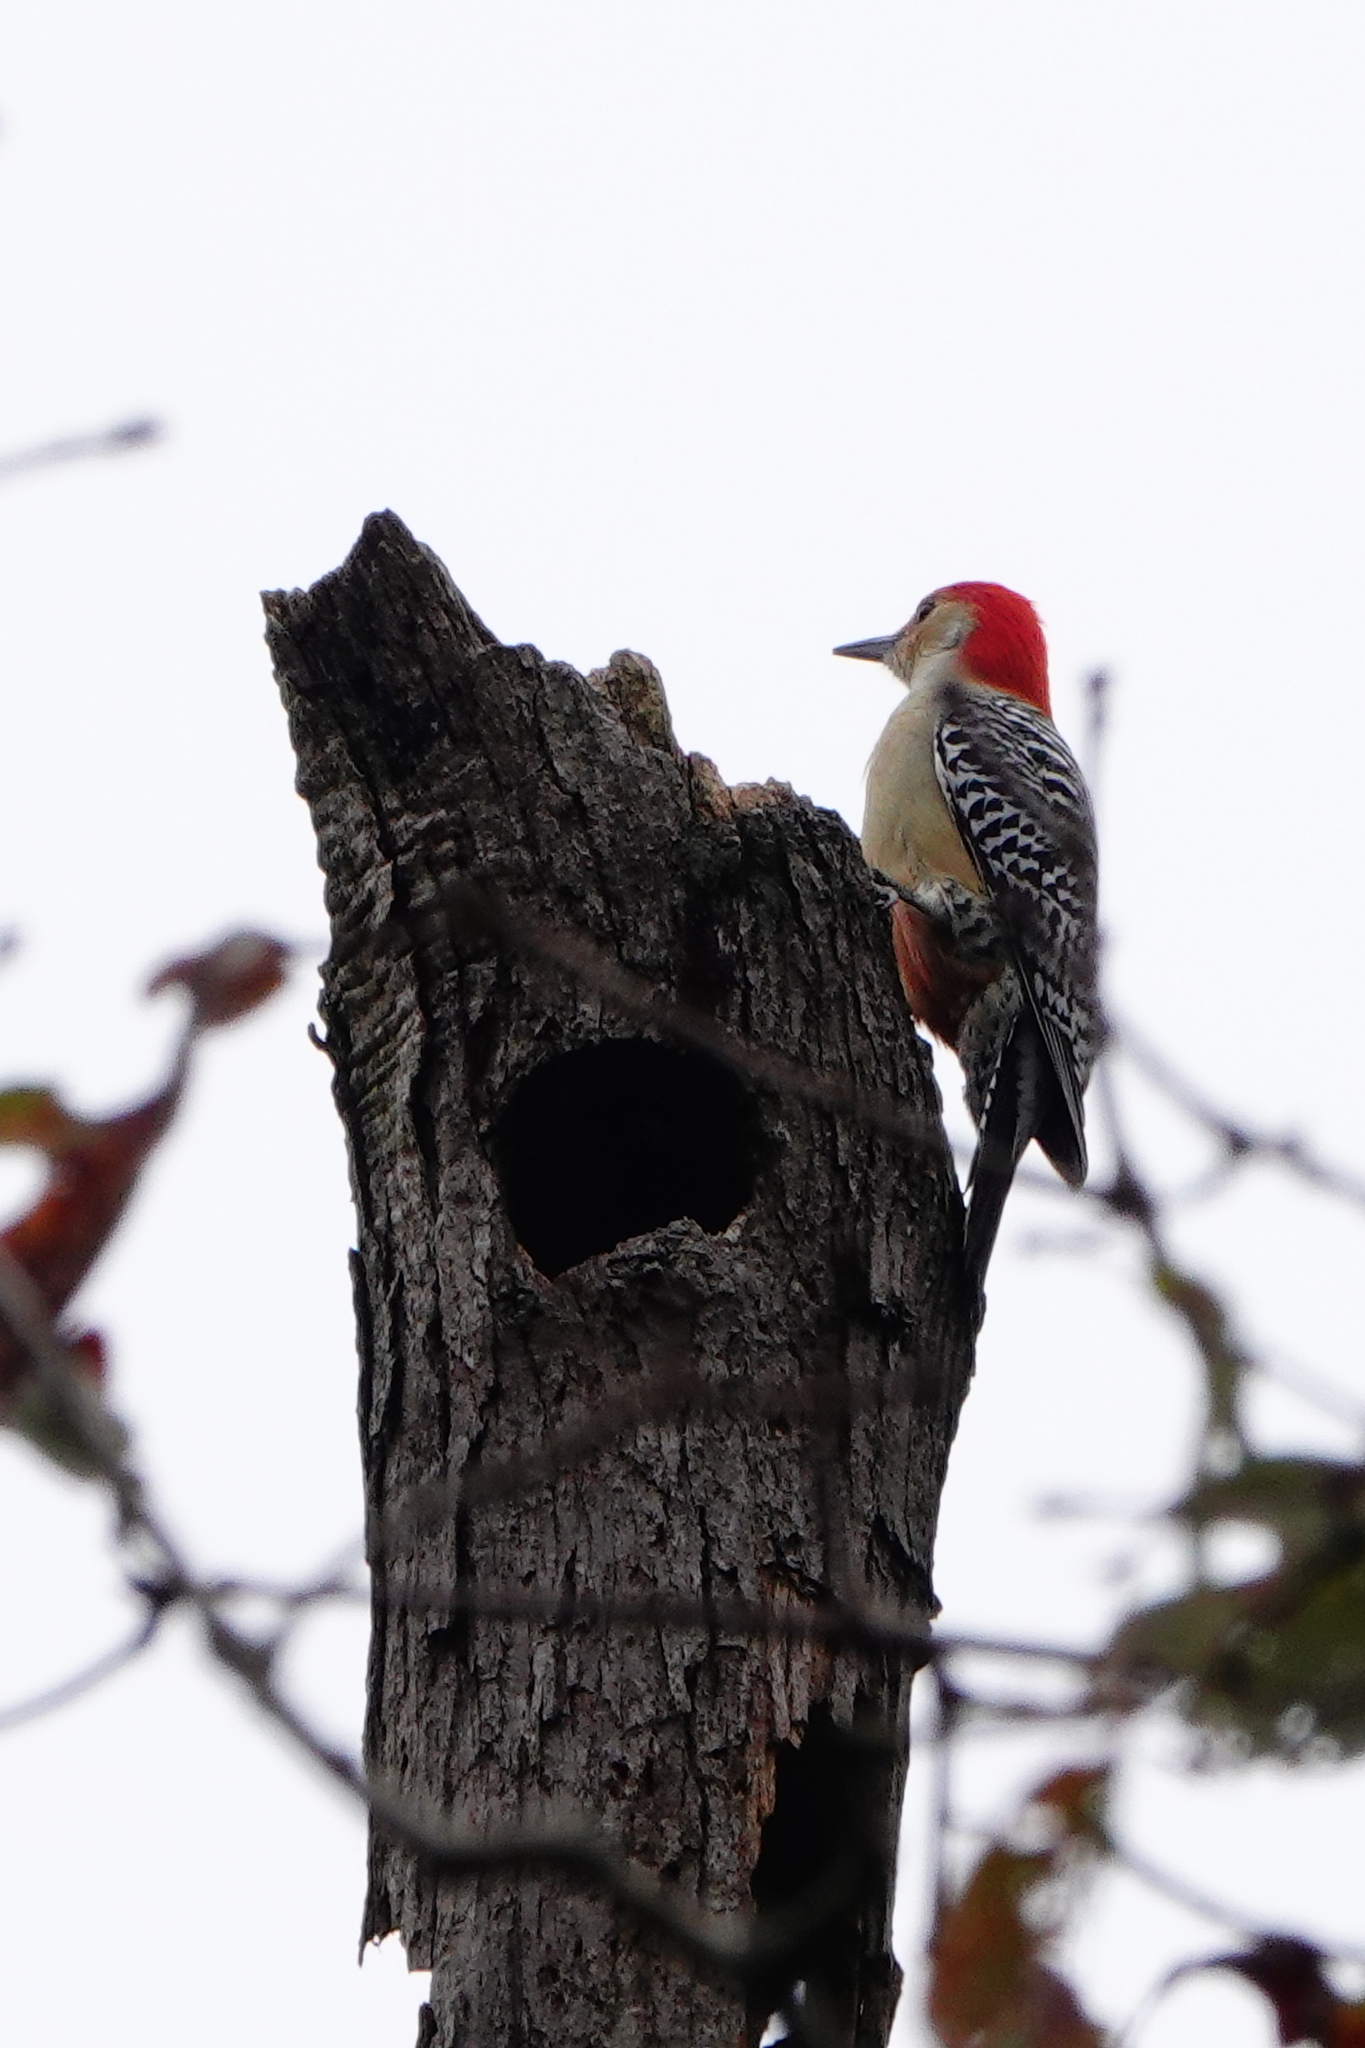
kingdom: Animalia
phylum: Chordata
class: Aves
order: Piciformes
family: Picidae
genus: Melanerpes
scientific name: Melanerpes carolinus
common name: Red-bellied woodpecker
